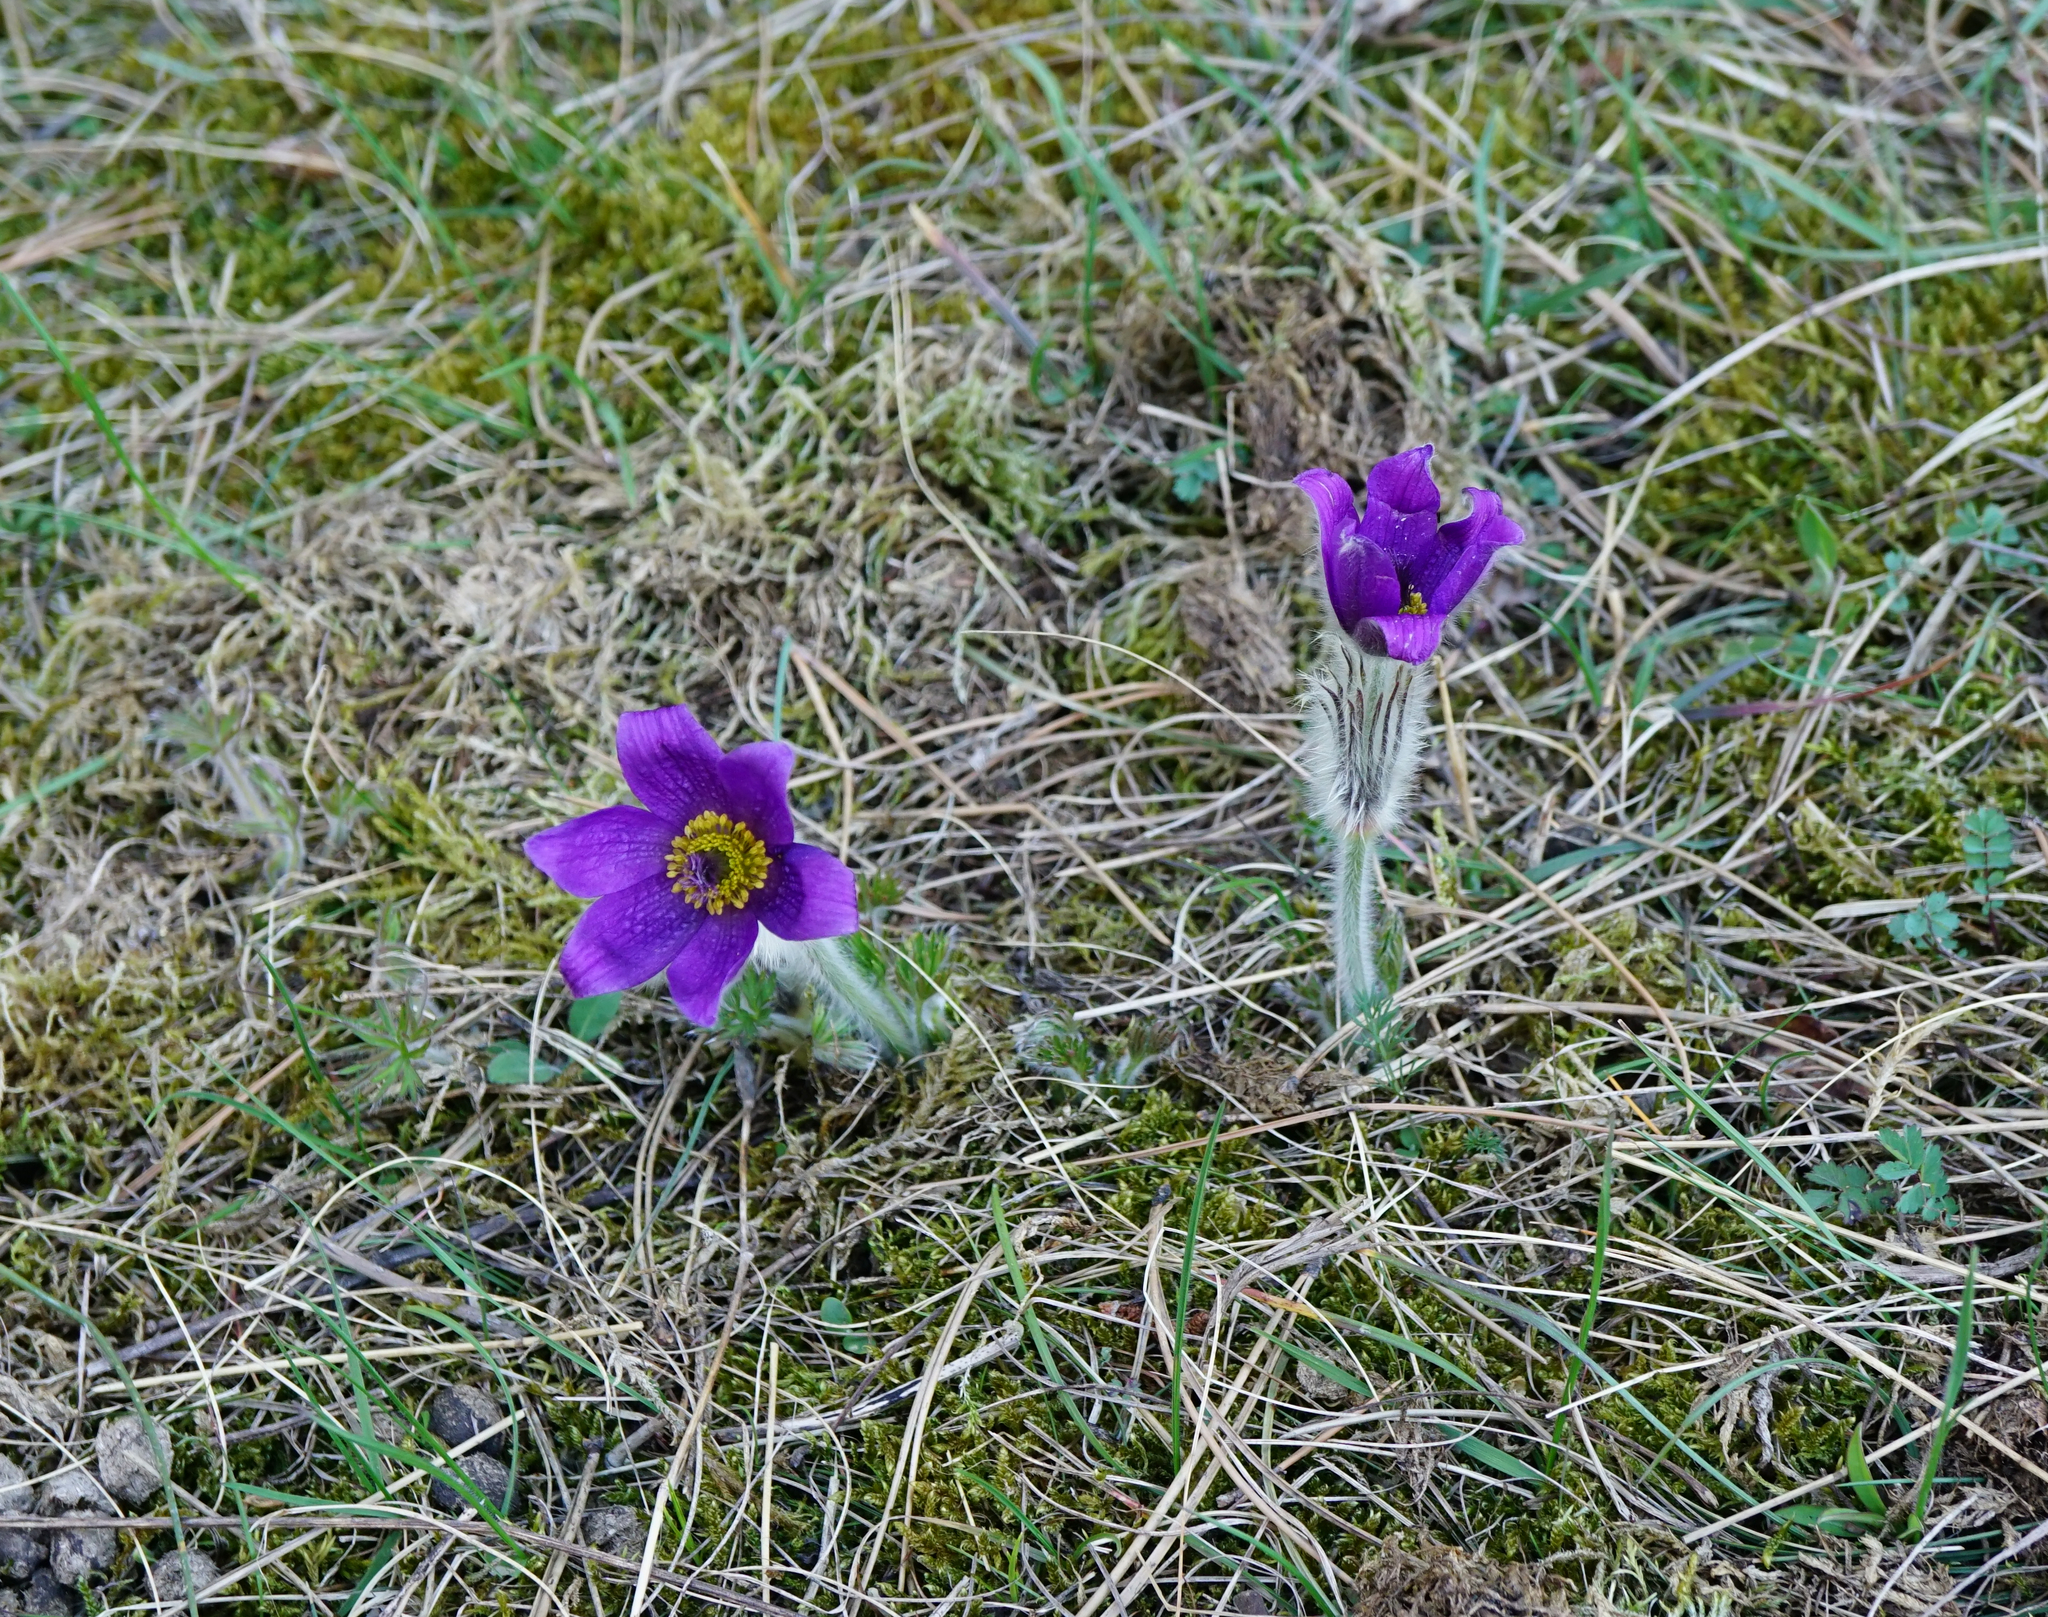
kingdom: Plantae
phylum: Tracheophyta
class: Magnoliopsida
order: Ranunculales
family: Ranunculaceae
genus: Pulsatilla
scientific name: Pulsatilla grandis
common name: Greater pasque flower
